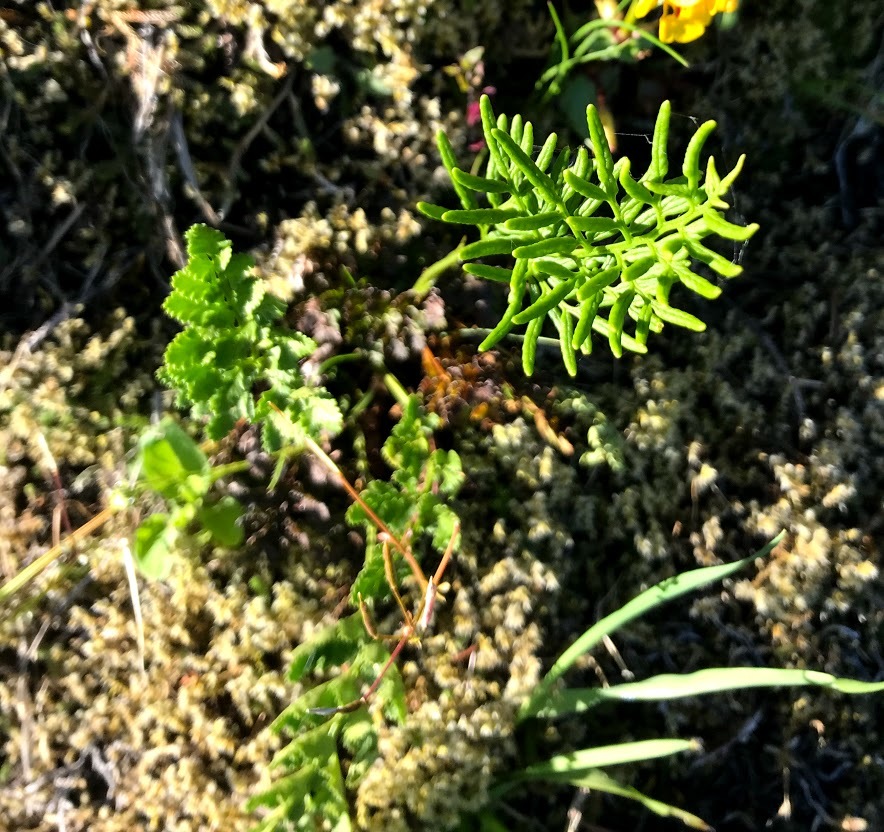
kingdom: Plantae
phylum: Tracheophyta
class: Polypodiopsida
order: Polypodiales
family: Pteridaceae
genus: Cryptogramma
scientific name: Cryptogramma acrostichoides
